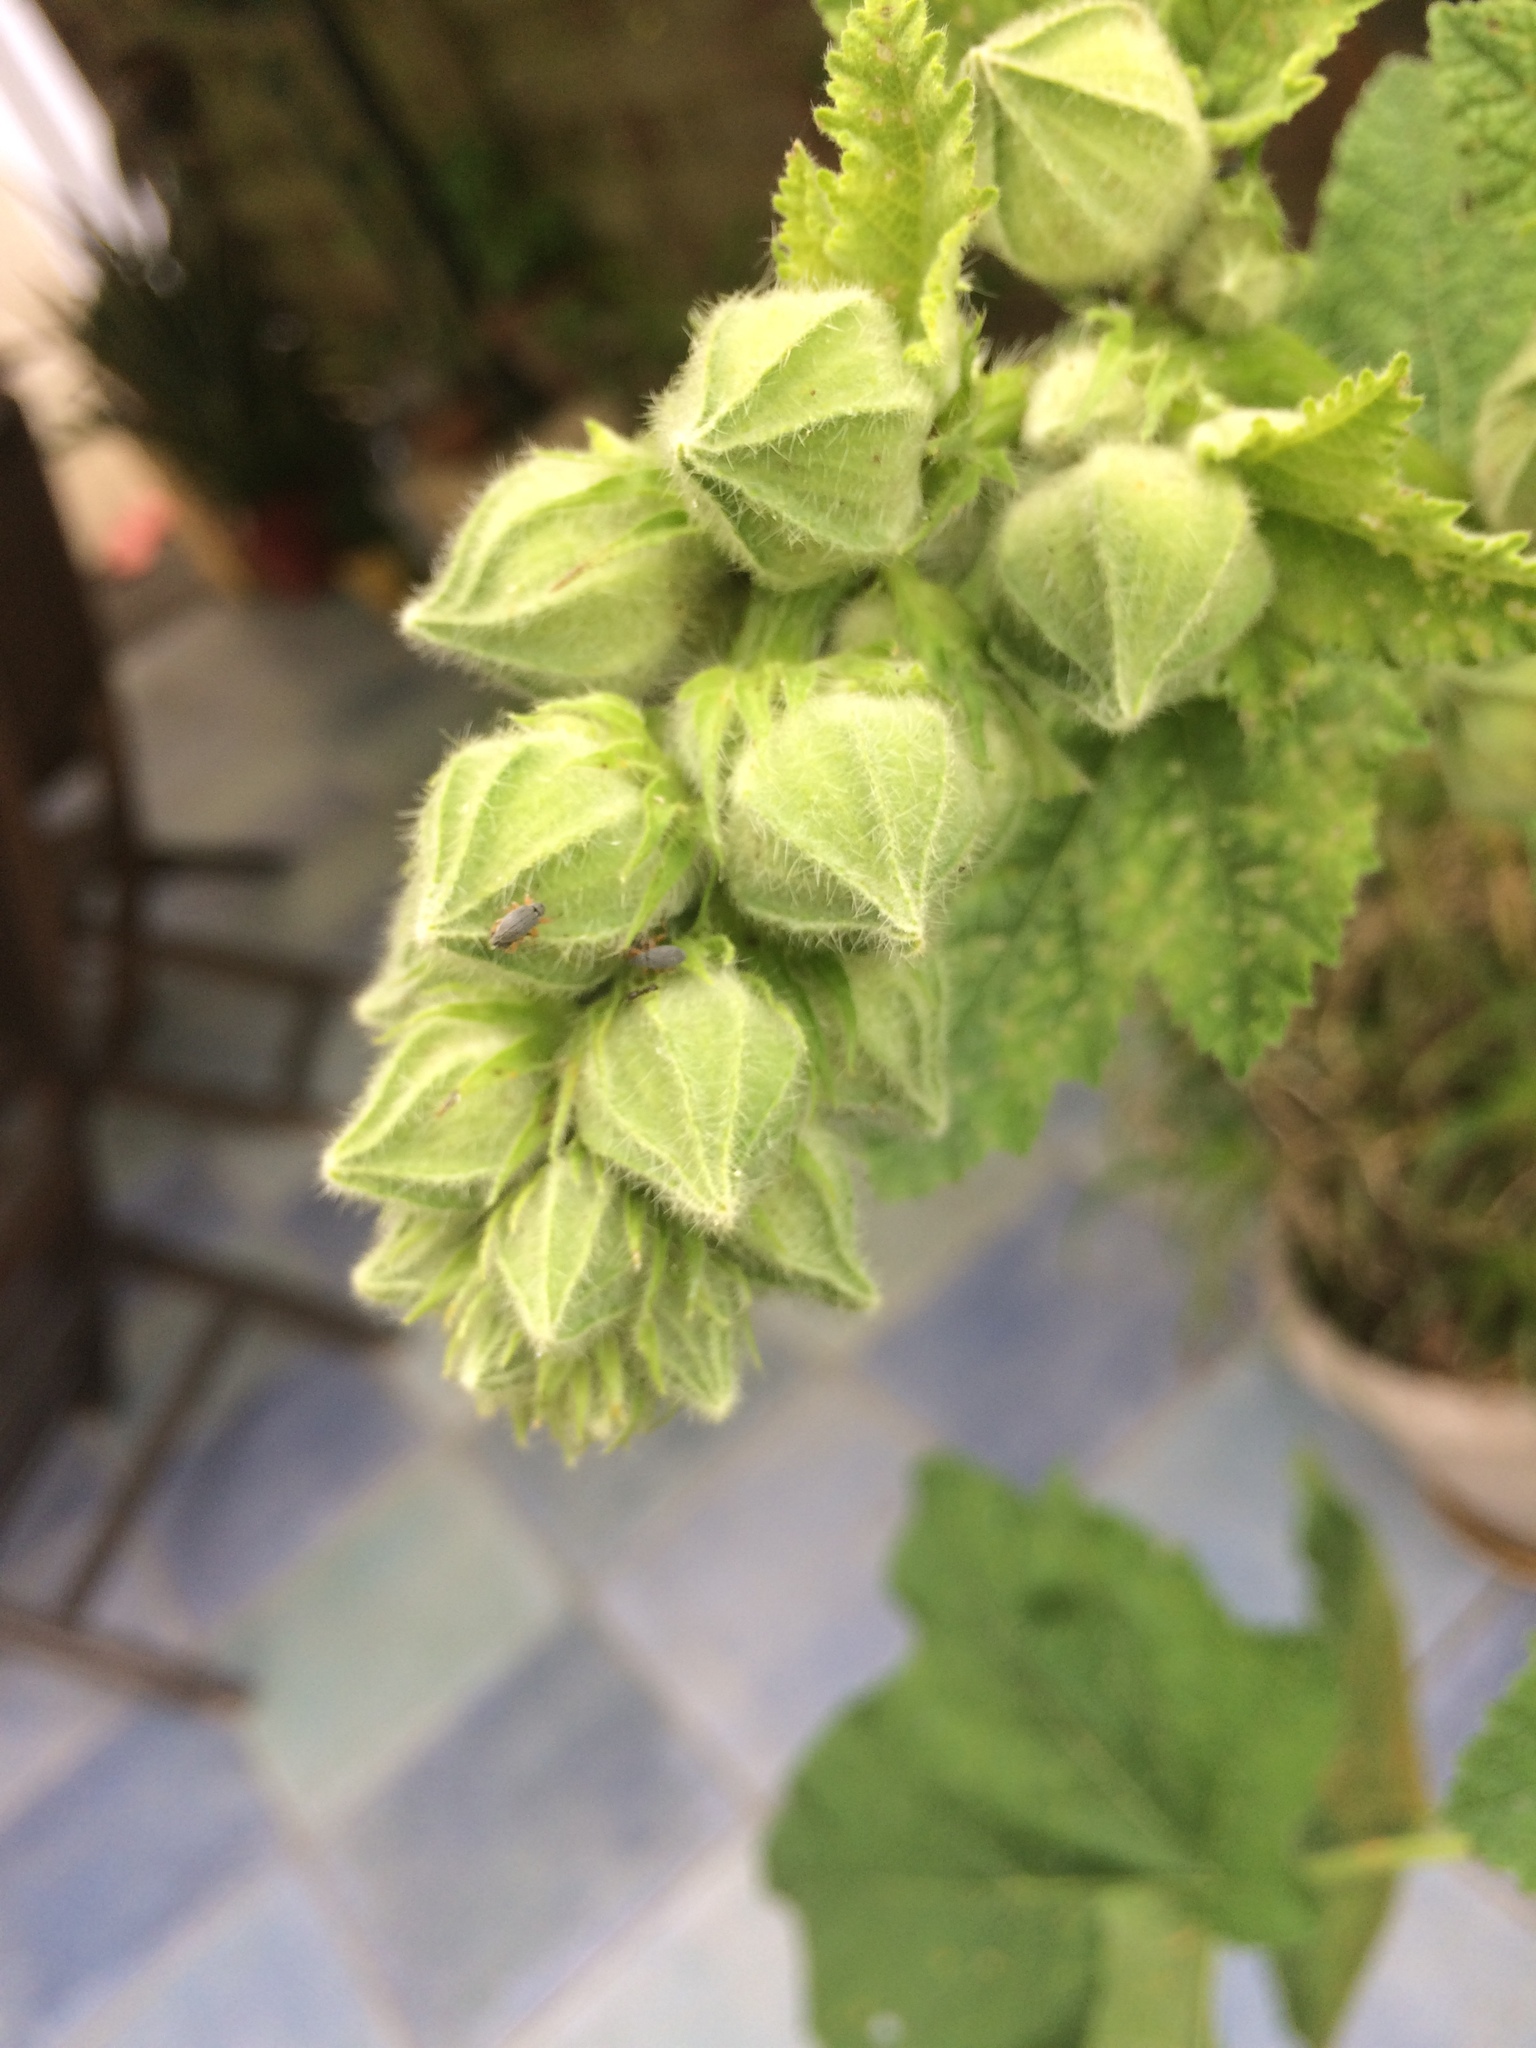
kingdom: Animalia
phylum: Arthropoda
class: Insecta
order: Coleoptera
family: Brentidae
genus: Rhopalapion
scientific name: Rhopalapion longirostre
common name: Hollyhock weevil
